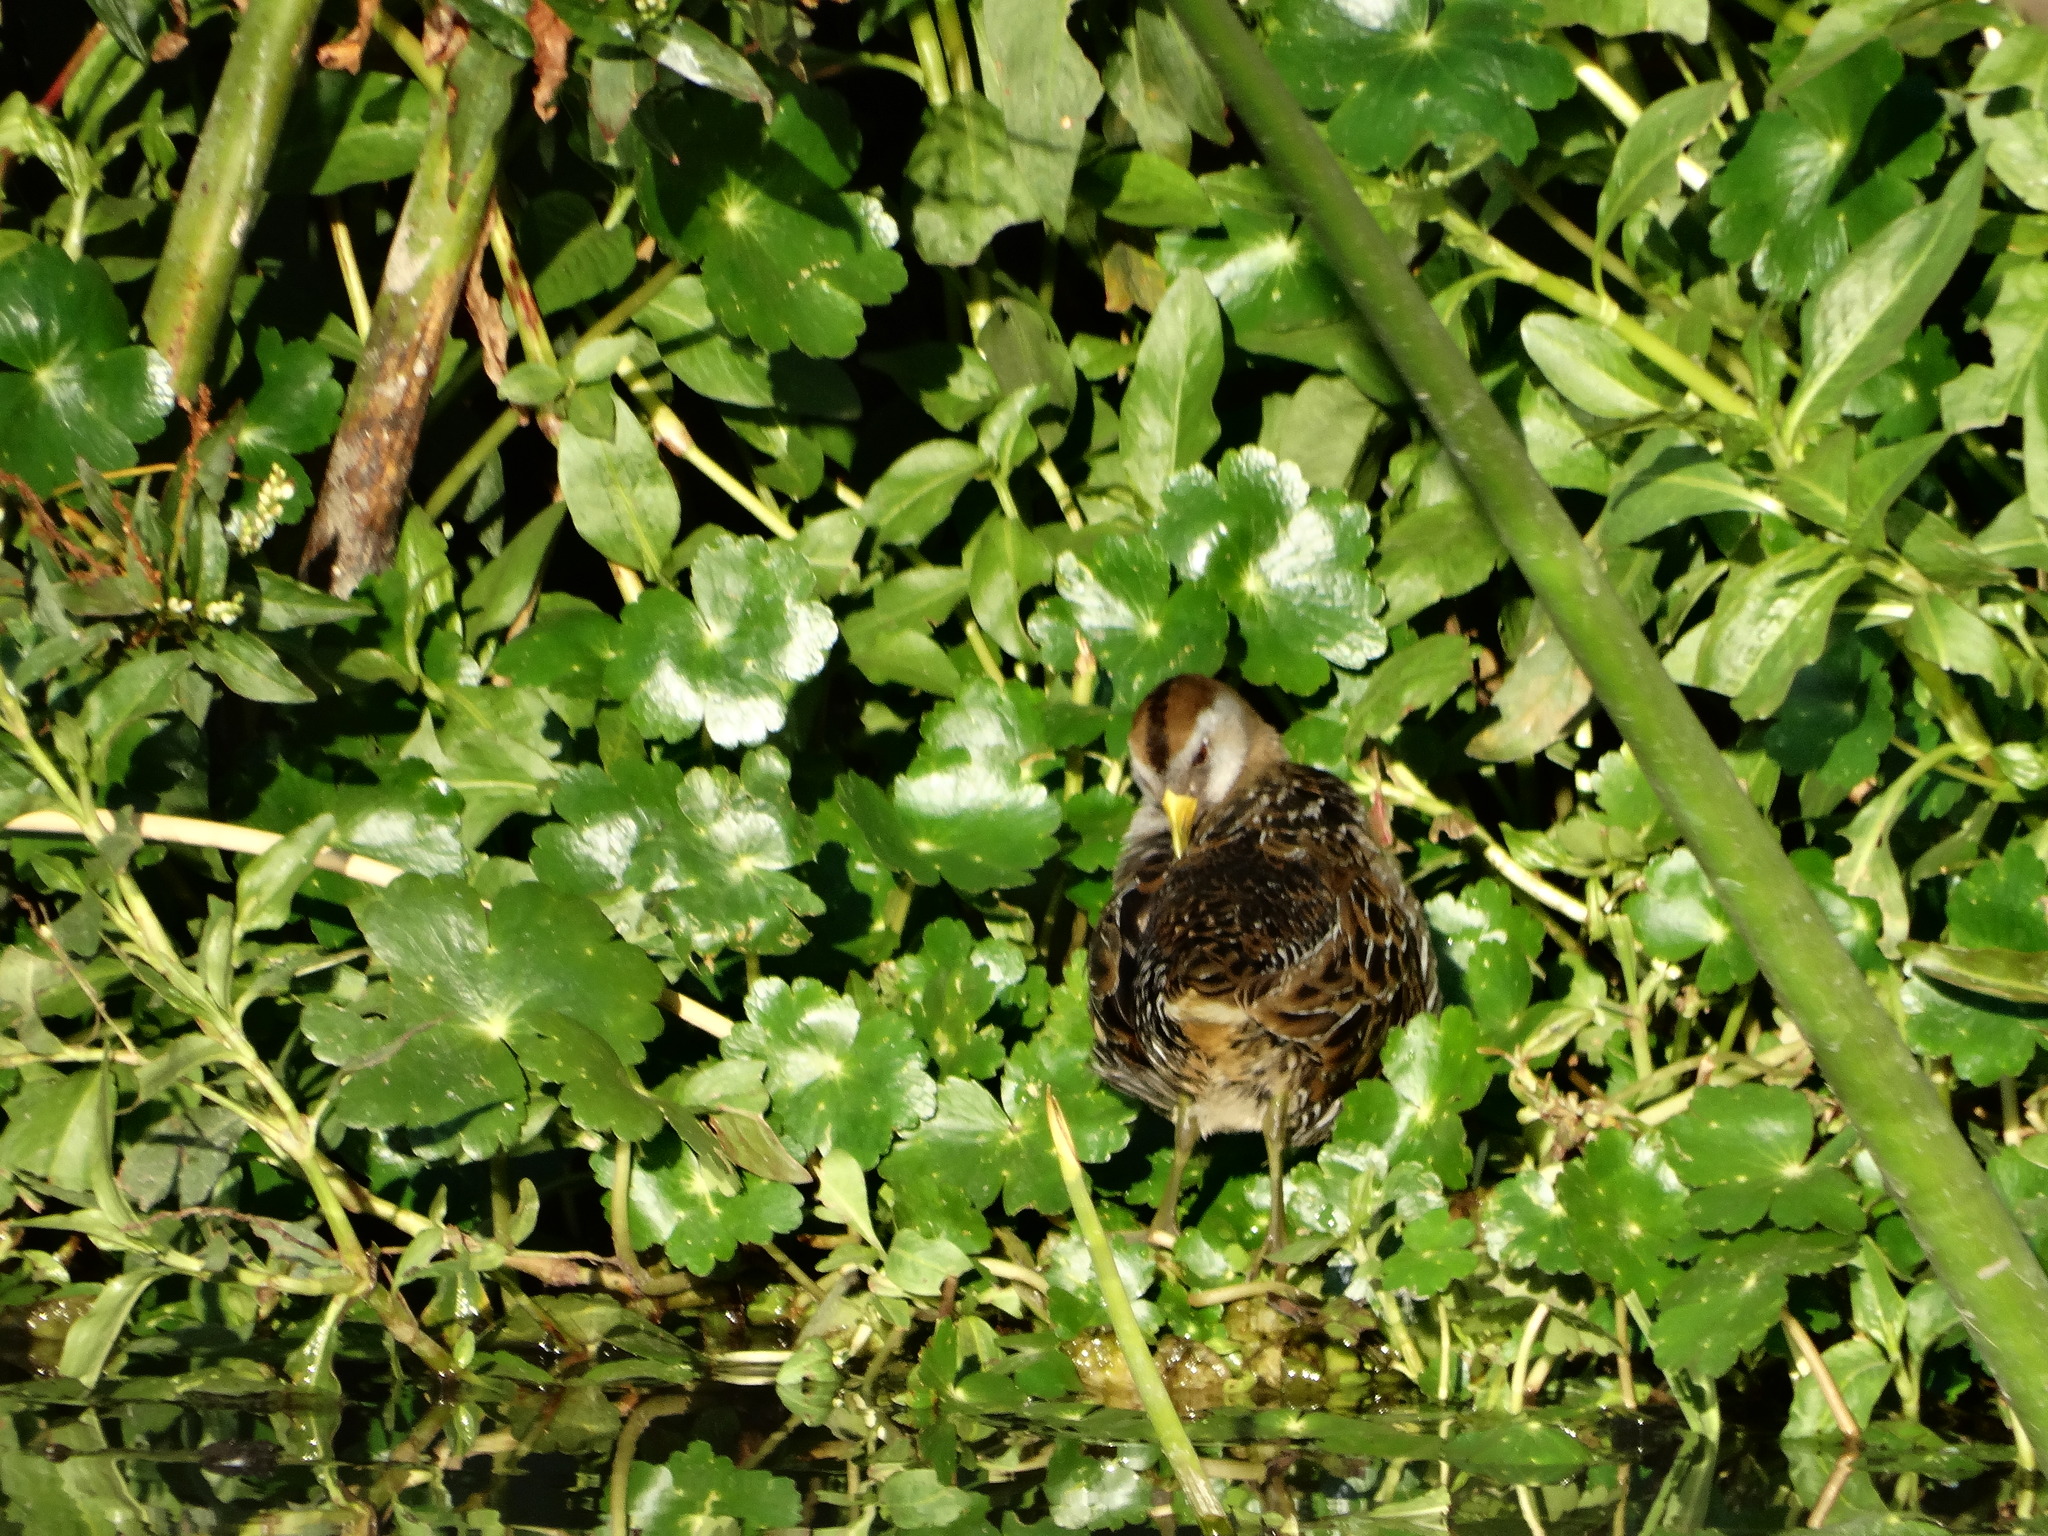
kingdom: Animalia
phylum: Chordata
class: Aves
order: Gruiformes
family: Rallidae
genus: Porzana
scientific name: Porzana carolina
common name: Sora
